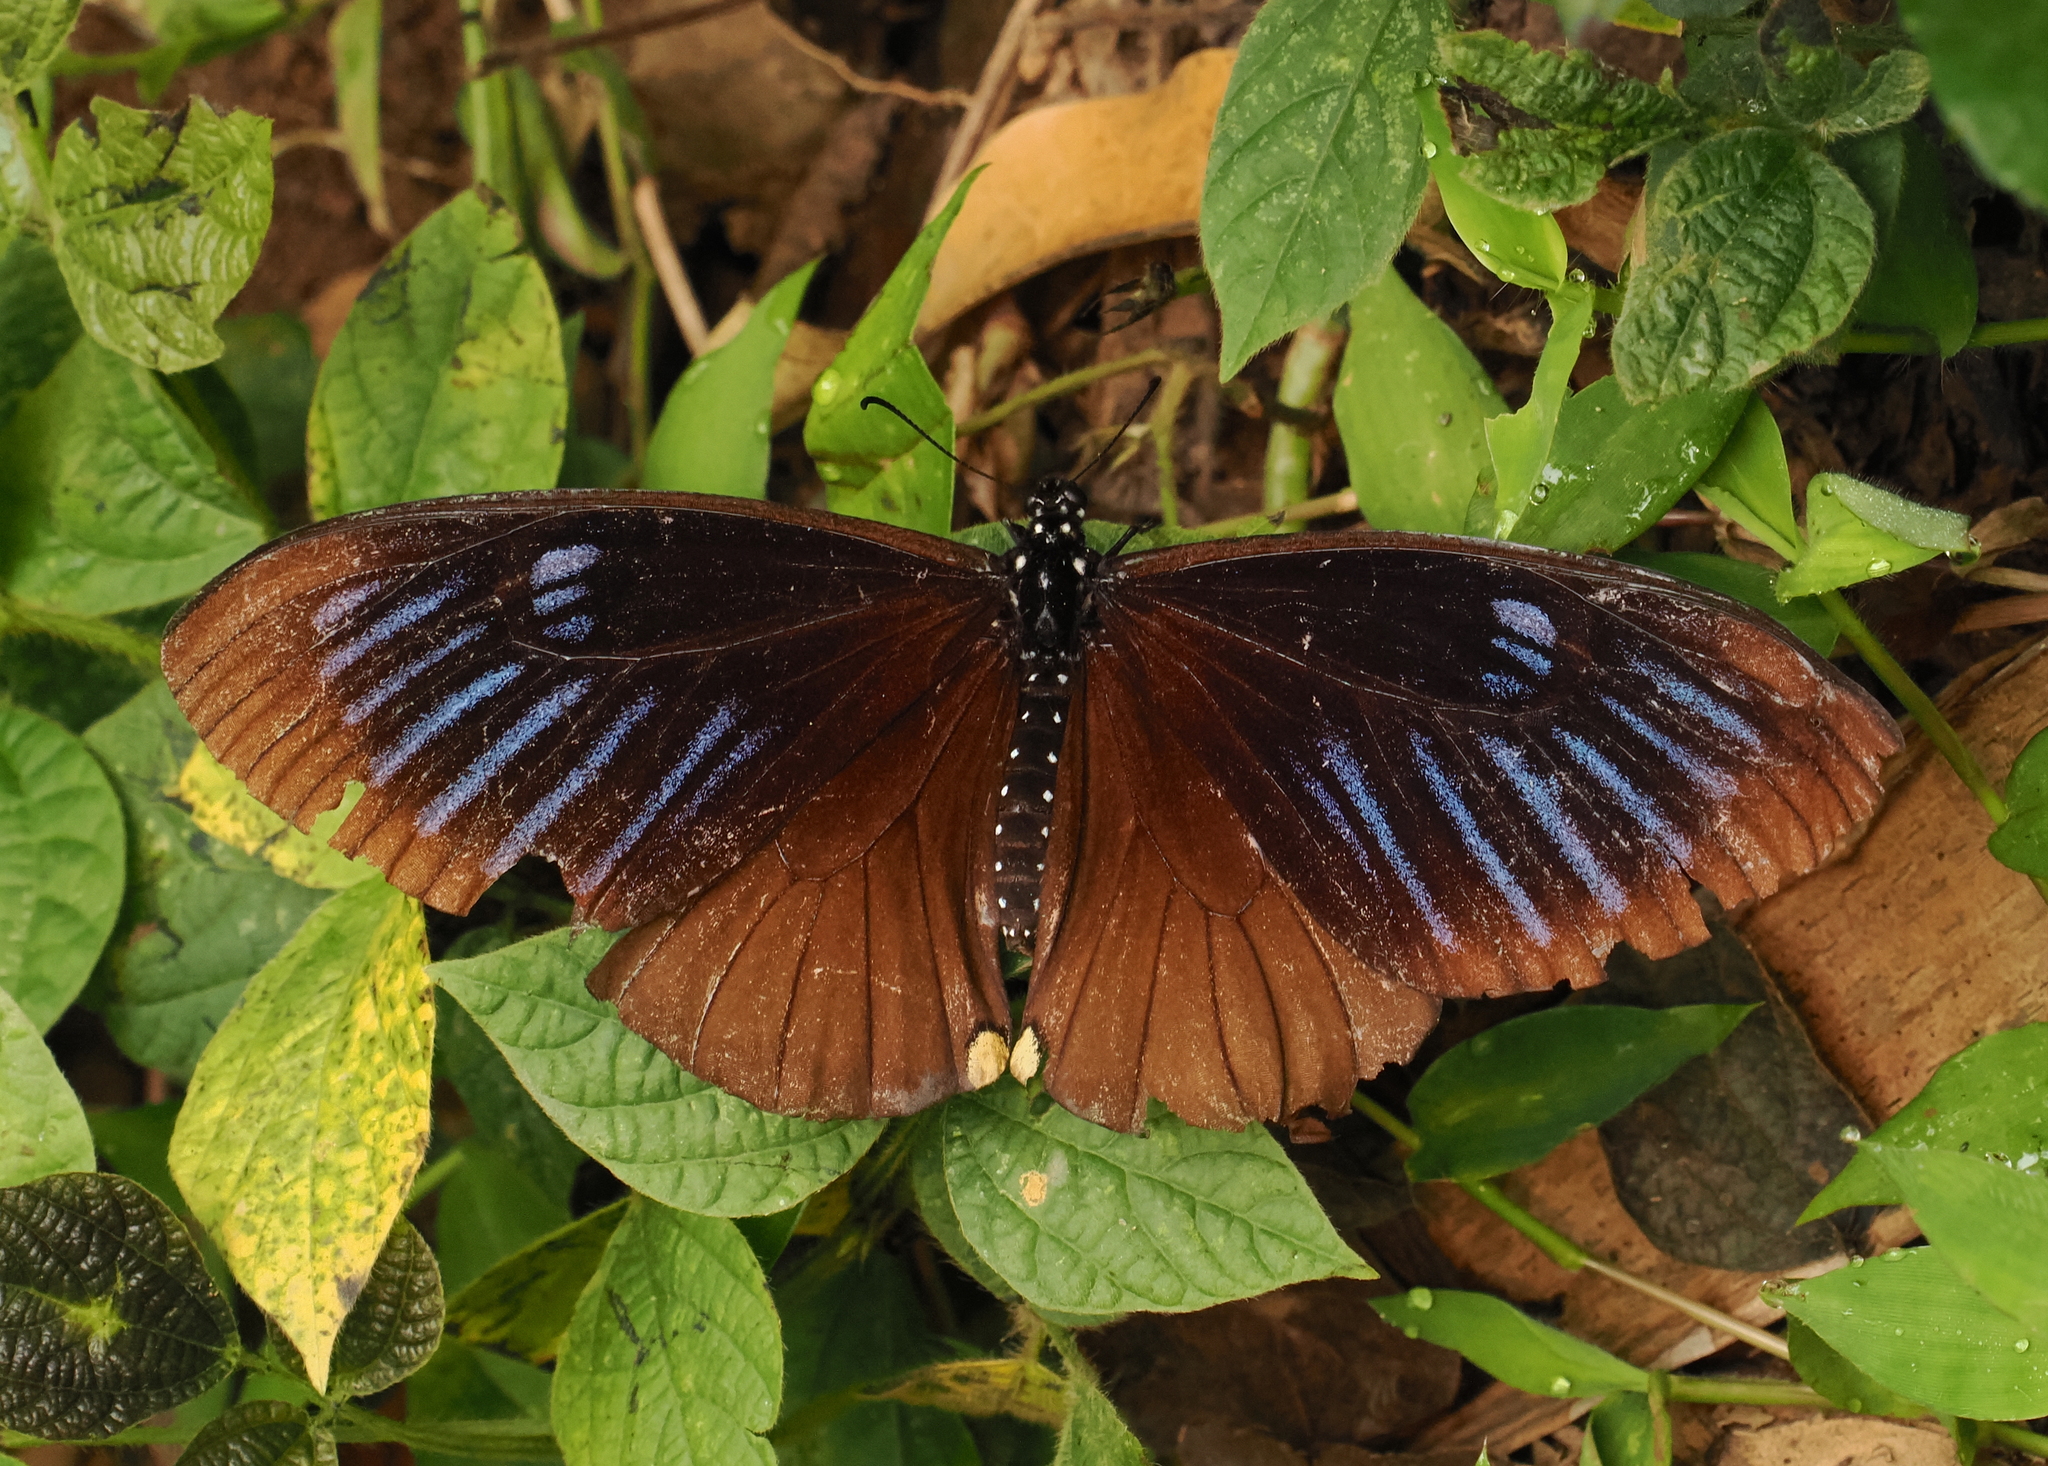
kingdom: Animalia
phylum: Arthropoda
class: Insecta
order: Lepidoptera
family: Papilionidae
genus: Papilio
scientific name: Papilio slateri
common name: Blue striped mime swallowtail
